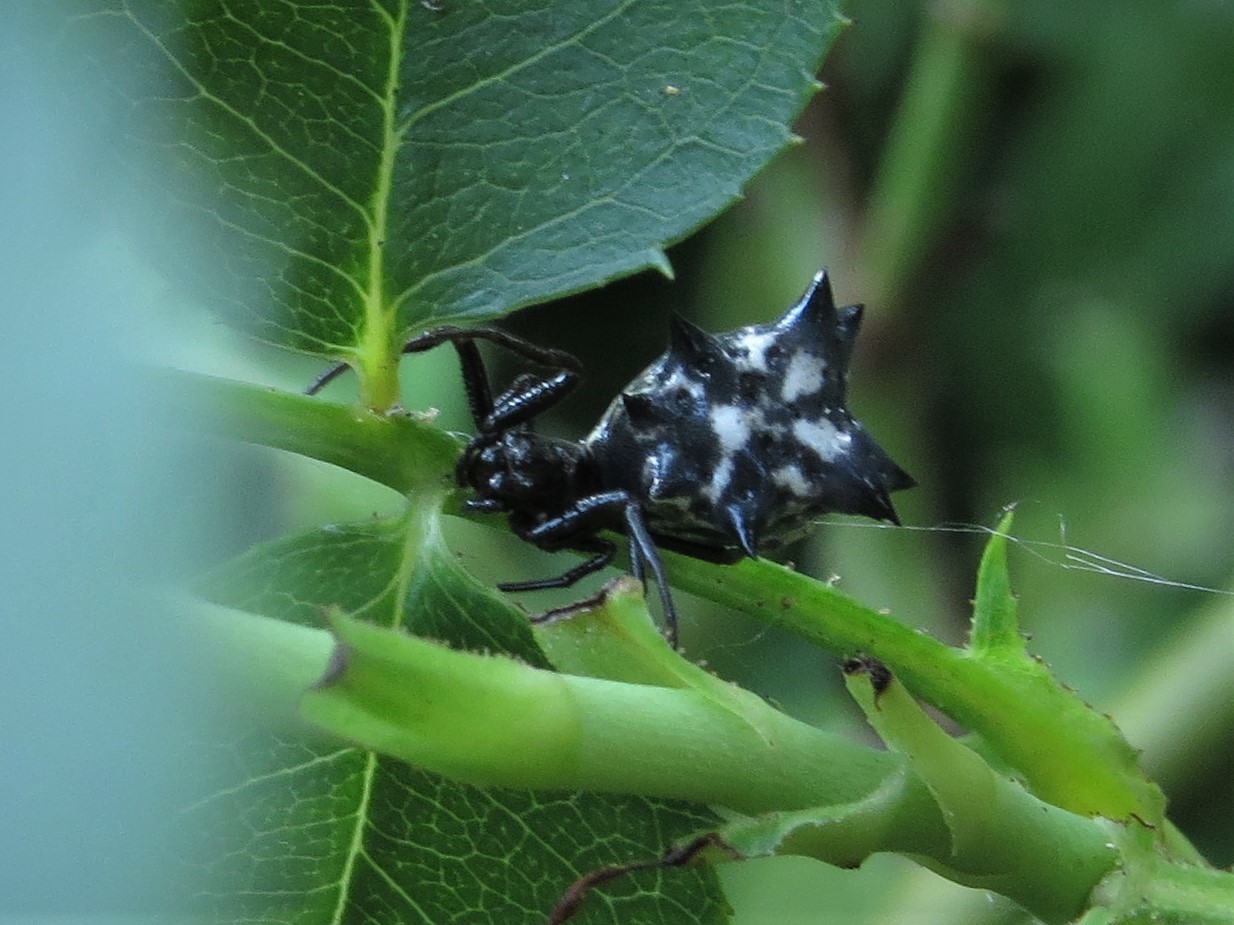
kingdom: Animalia
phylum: Arthropoda
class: Arachnida
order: Araneae
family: Araneidae
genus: Micrathena
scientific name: Micrathena gracilis
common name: Orb weavers
